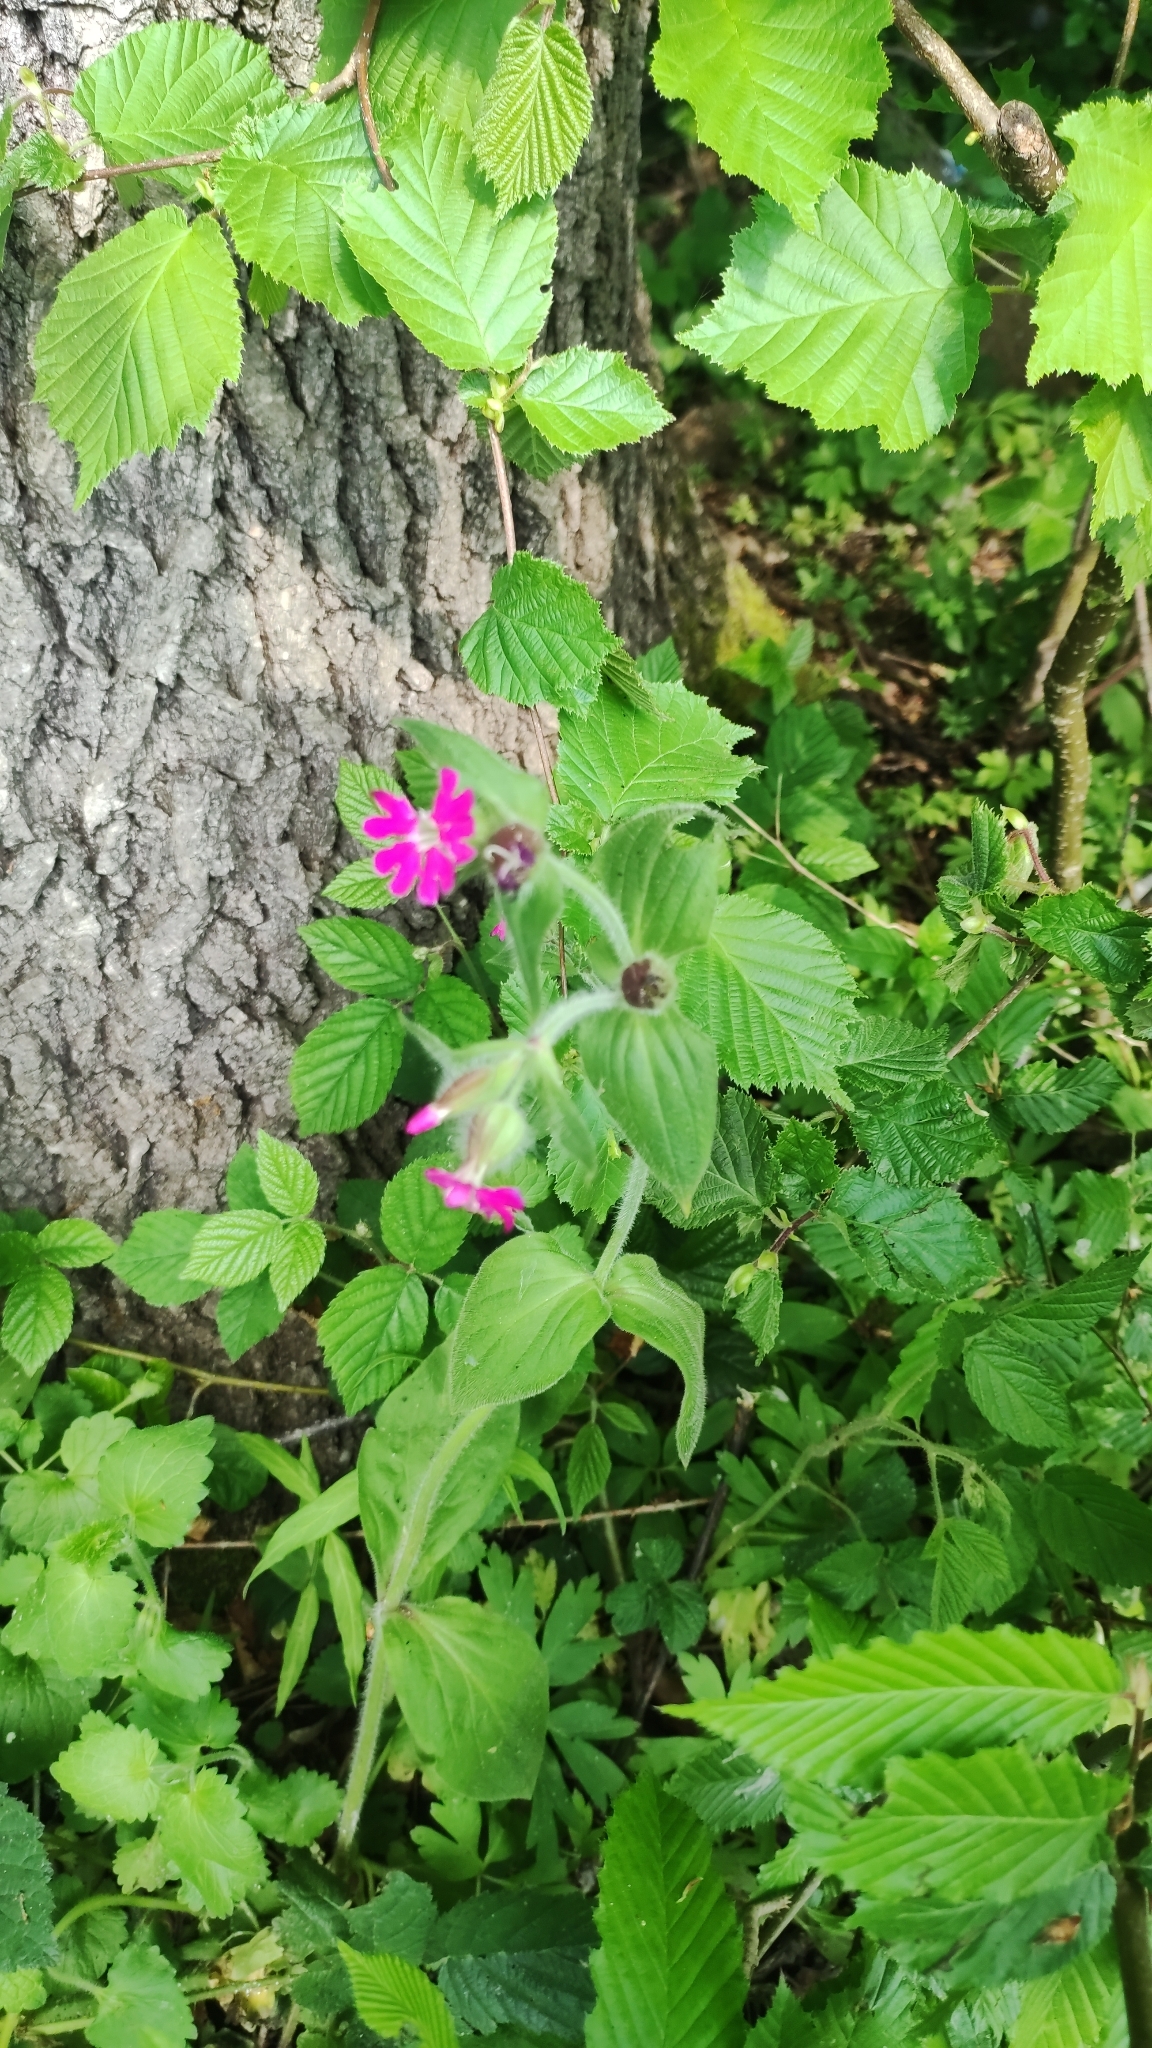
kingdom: Plantae
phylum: Tracheophyta
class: Magnoliopsida
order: Caryophyllales
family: Caryophyllaceae
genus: Silene
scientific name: Silene dioica
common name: Red campion
